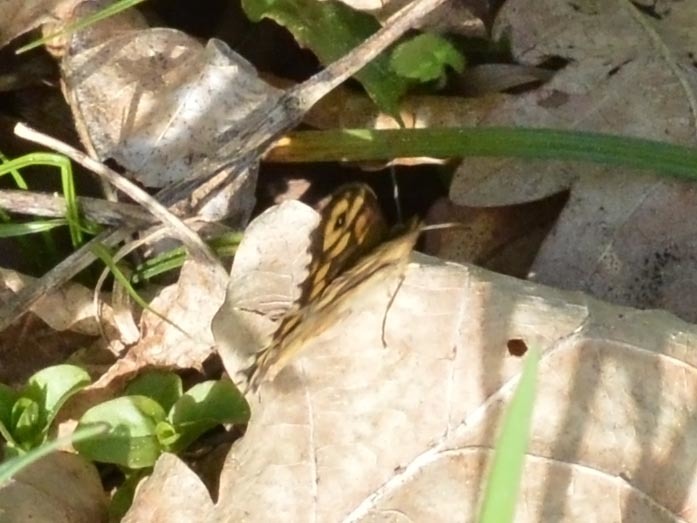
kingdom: Animalia
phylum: Arthropoda
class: Insecta
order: Lepidoptera
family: Nymphalidae
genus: Pararge
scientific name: Pararge aegeria
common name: Speckled wood
